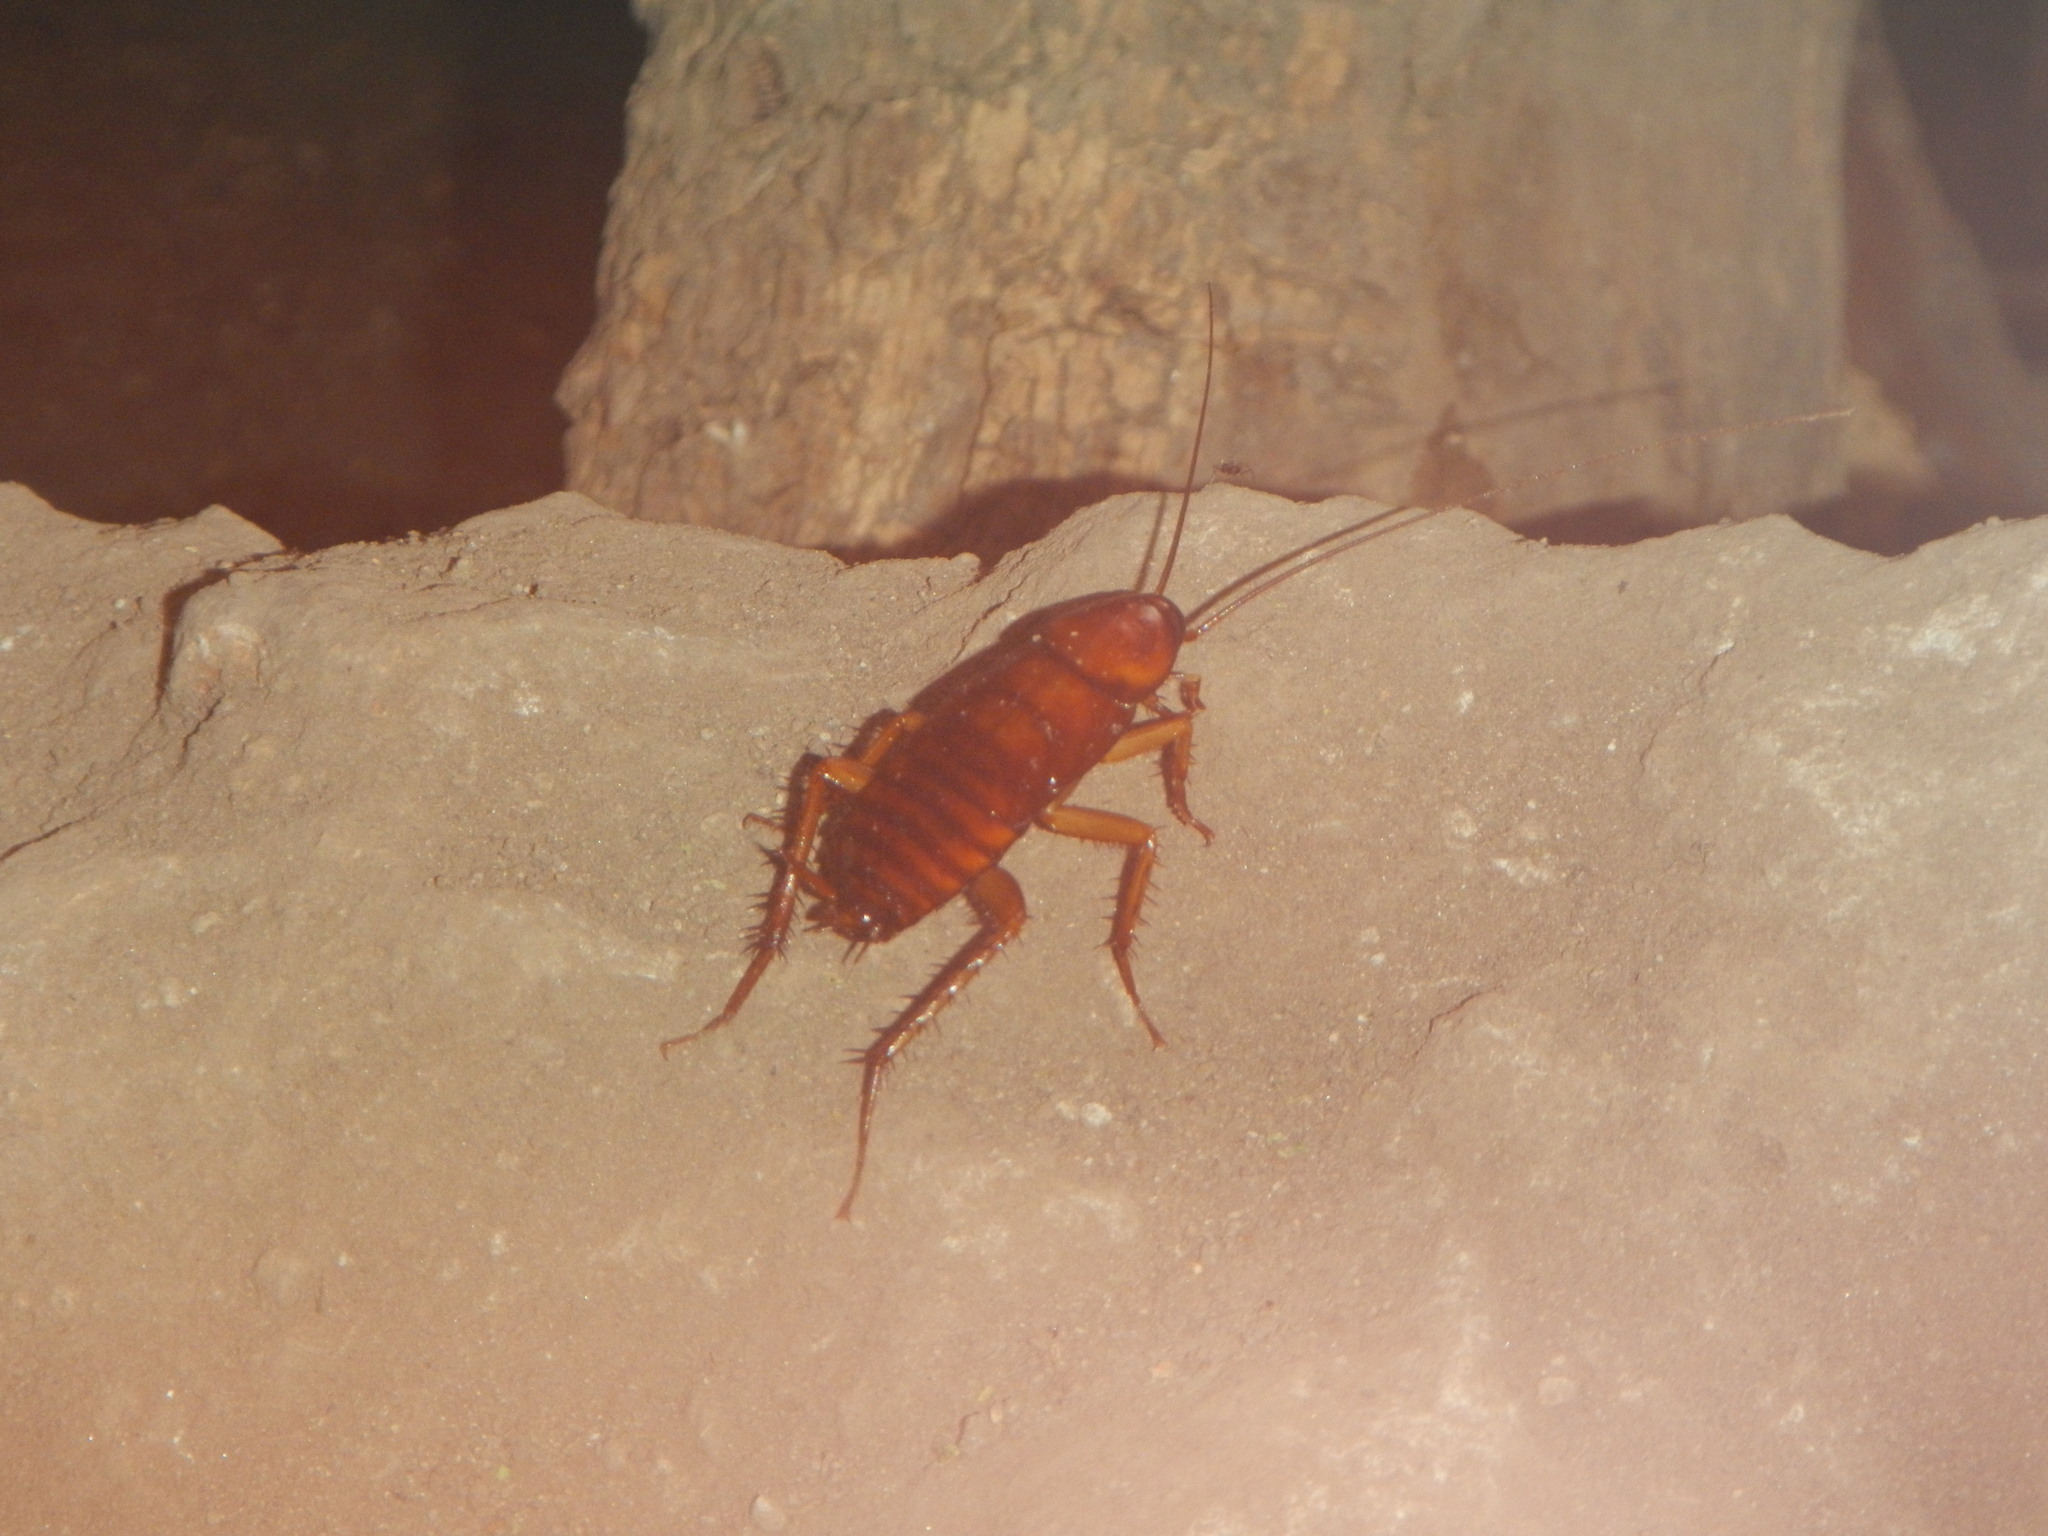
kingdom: Animalia
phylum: Arthropoda
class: Insecta
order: Blattodea
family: Blattidae
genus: Periplaneta
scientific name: Periplaneta americana
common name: American cockroach
